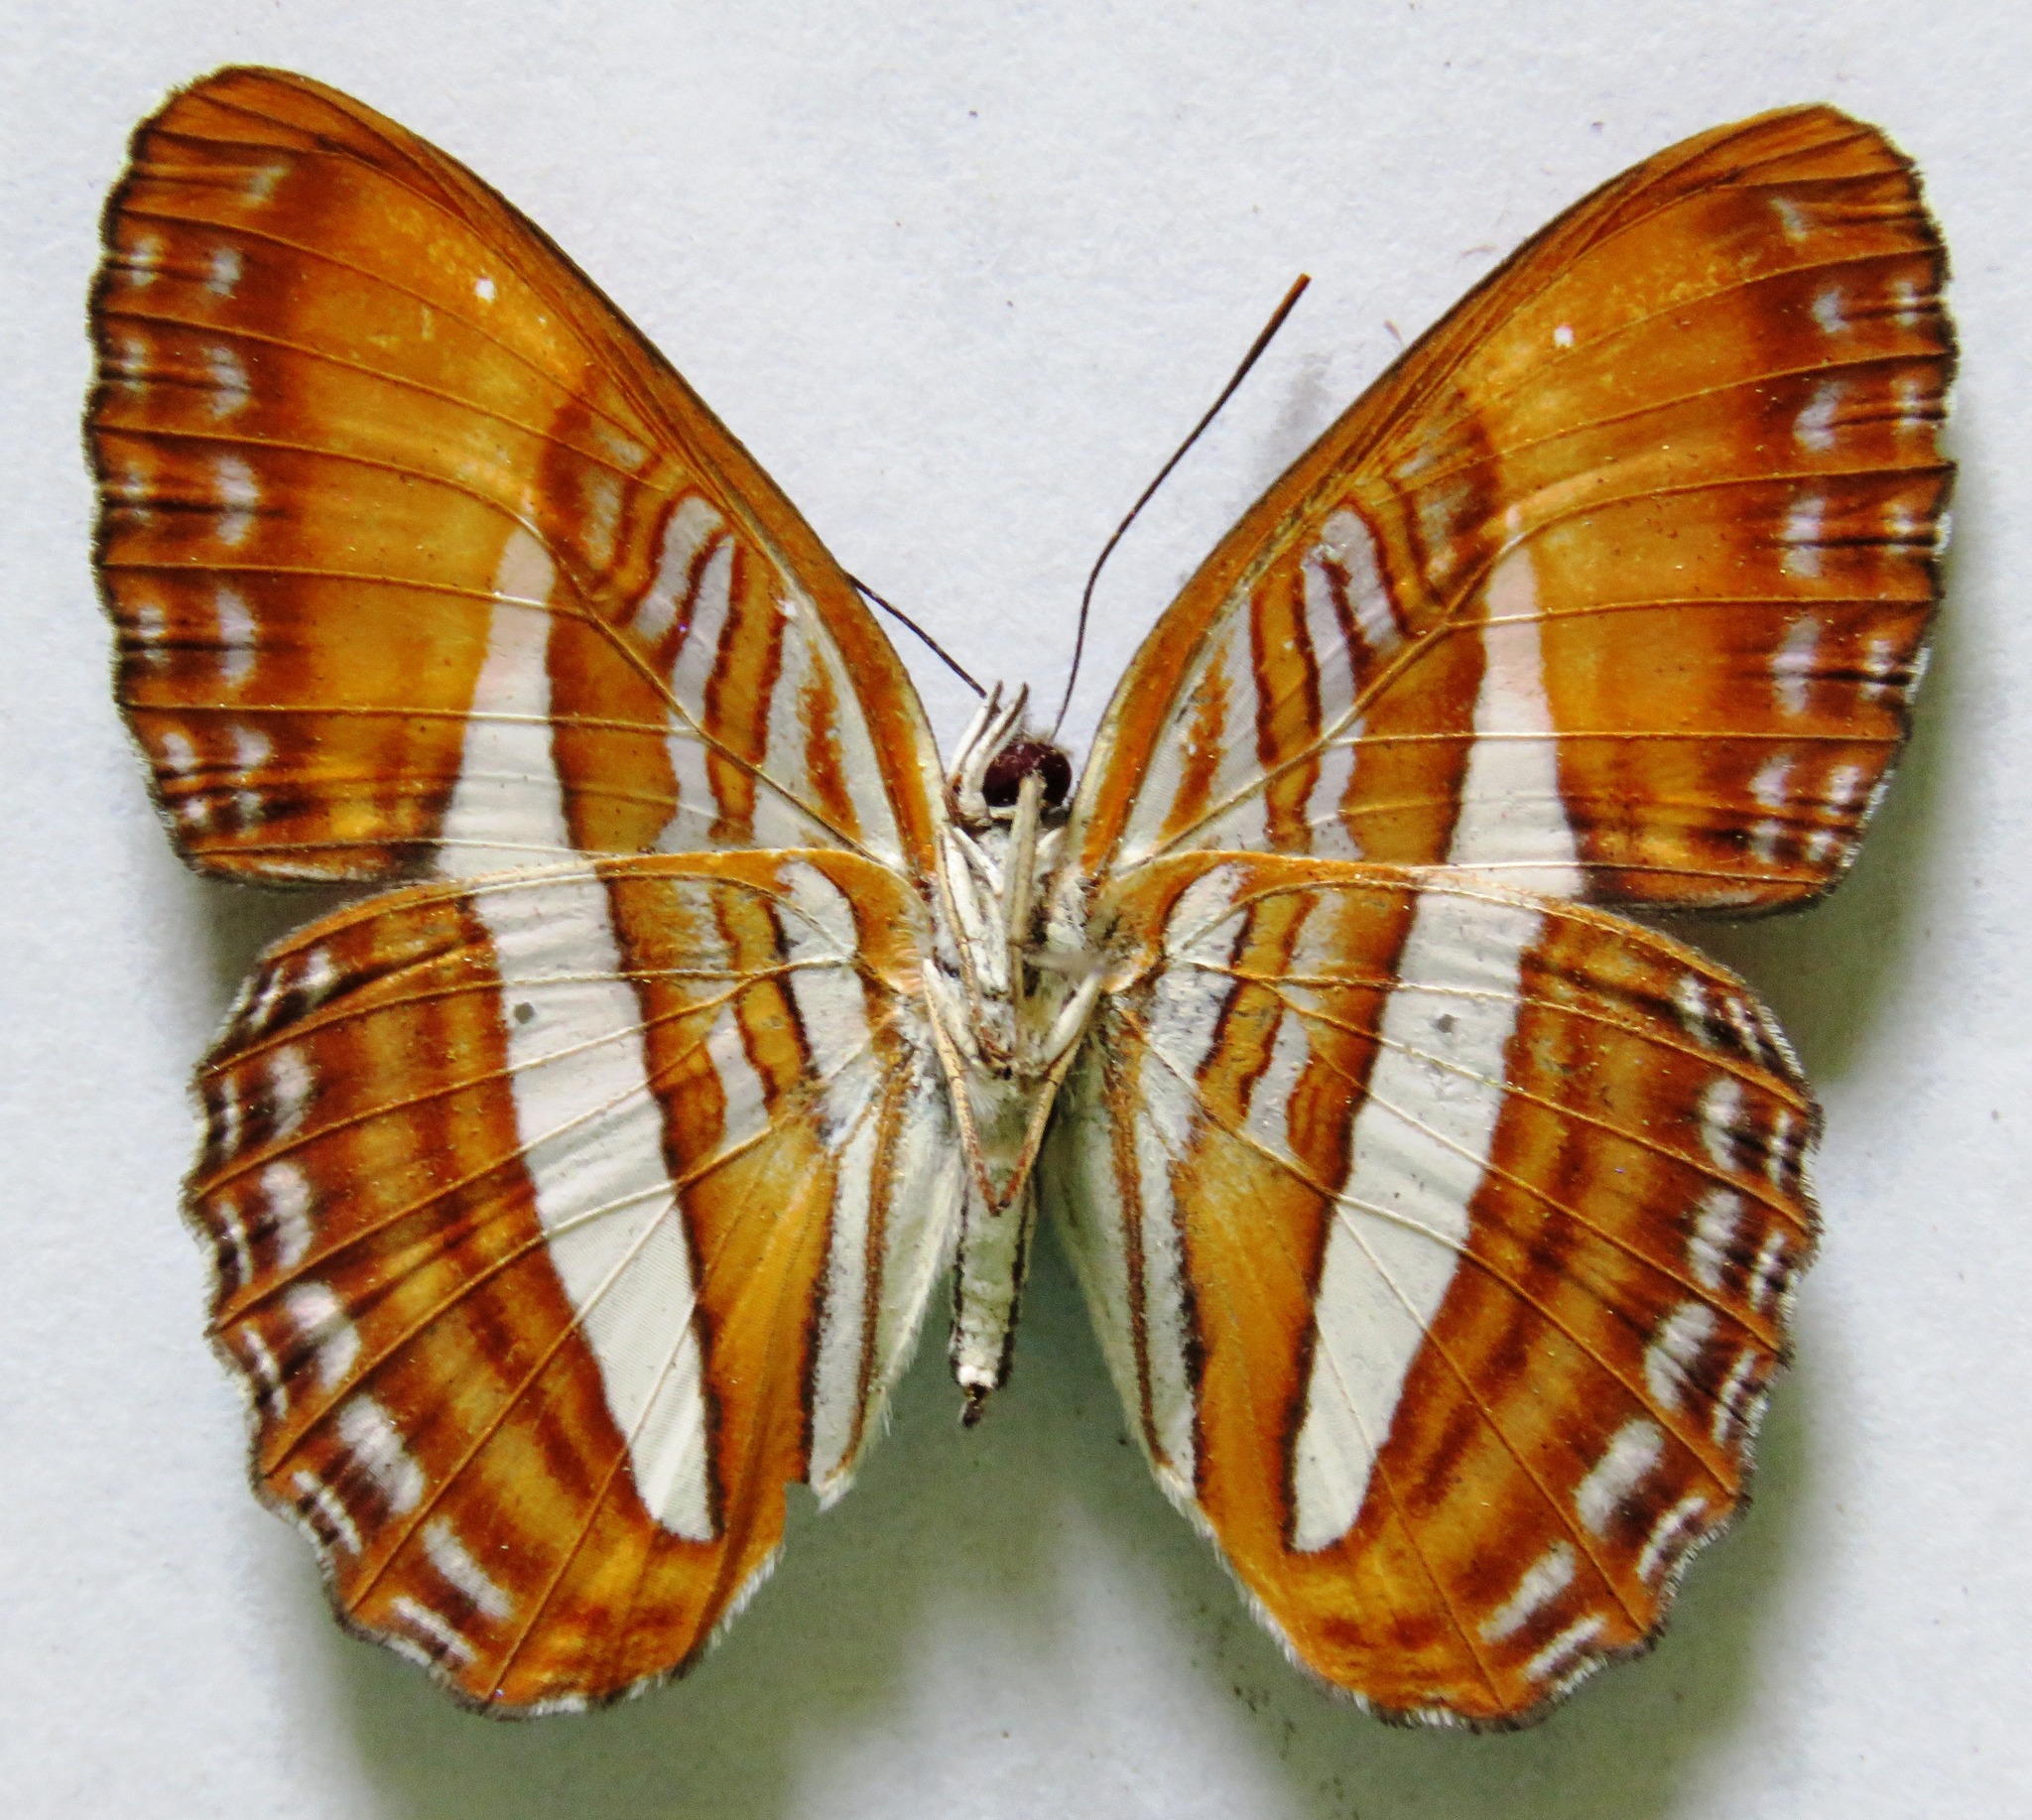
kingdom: Animalia
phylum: Arthropoda
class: Insecta
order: Lepidoptera
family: Nymphalidae
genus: Limenitis
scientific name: Limenitis cytherea
